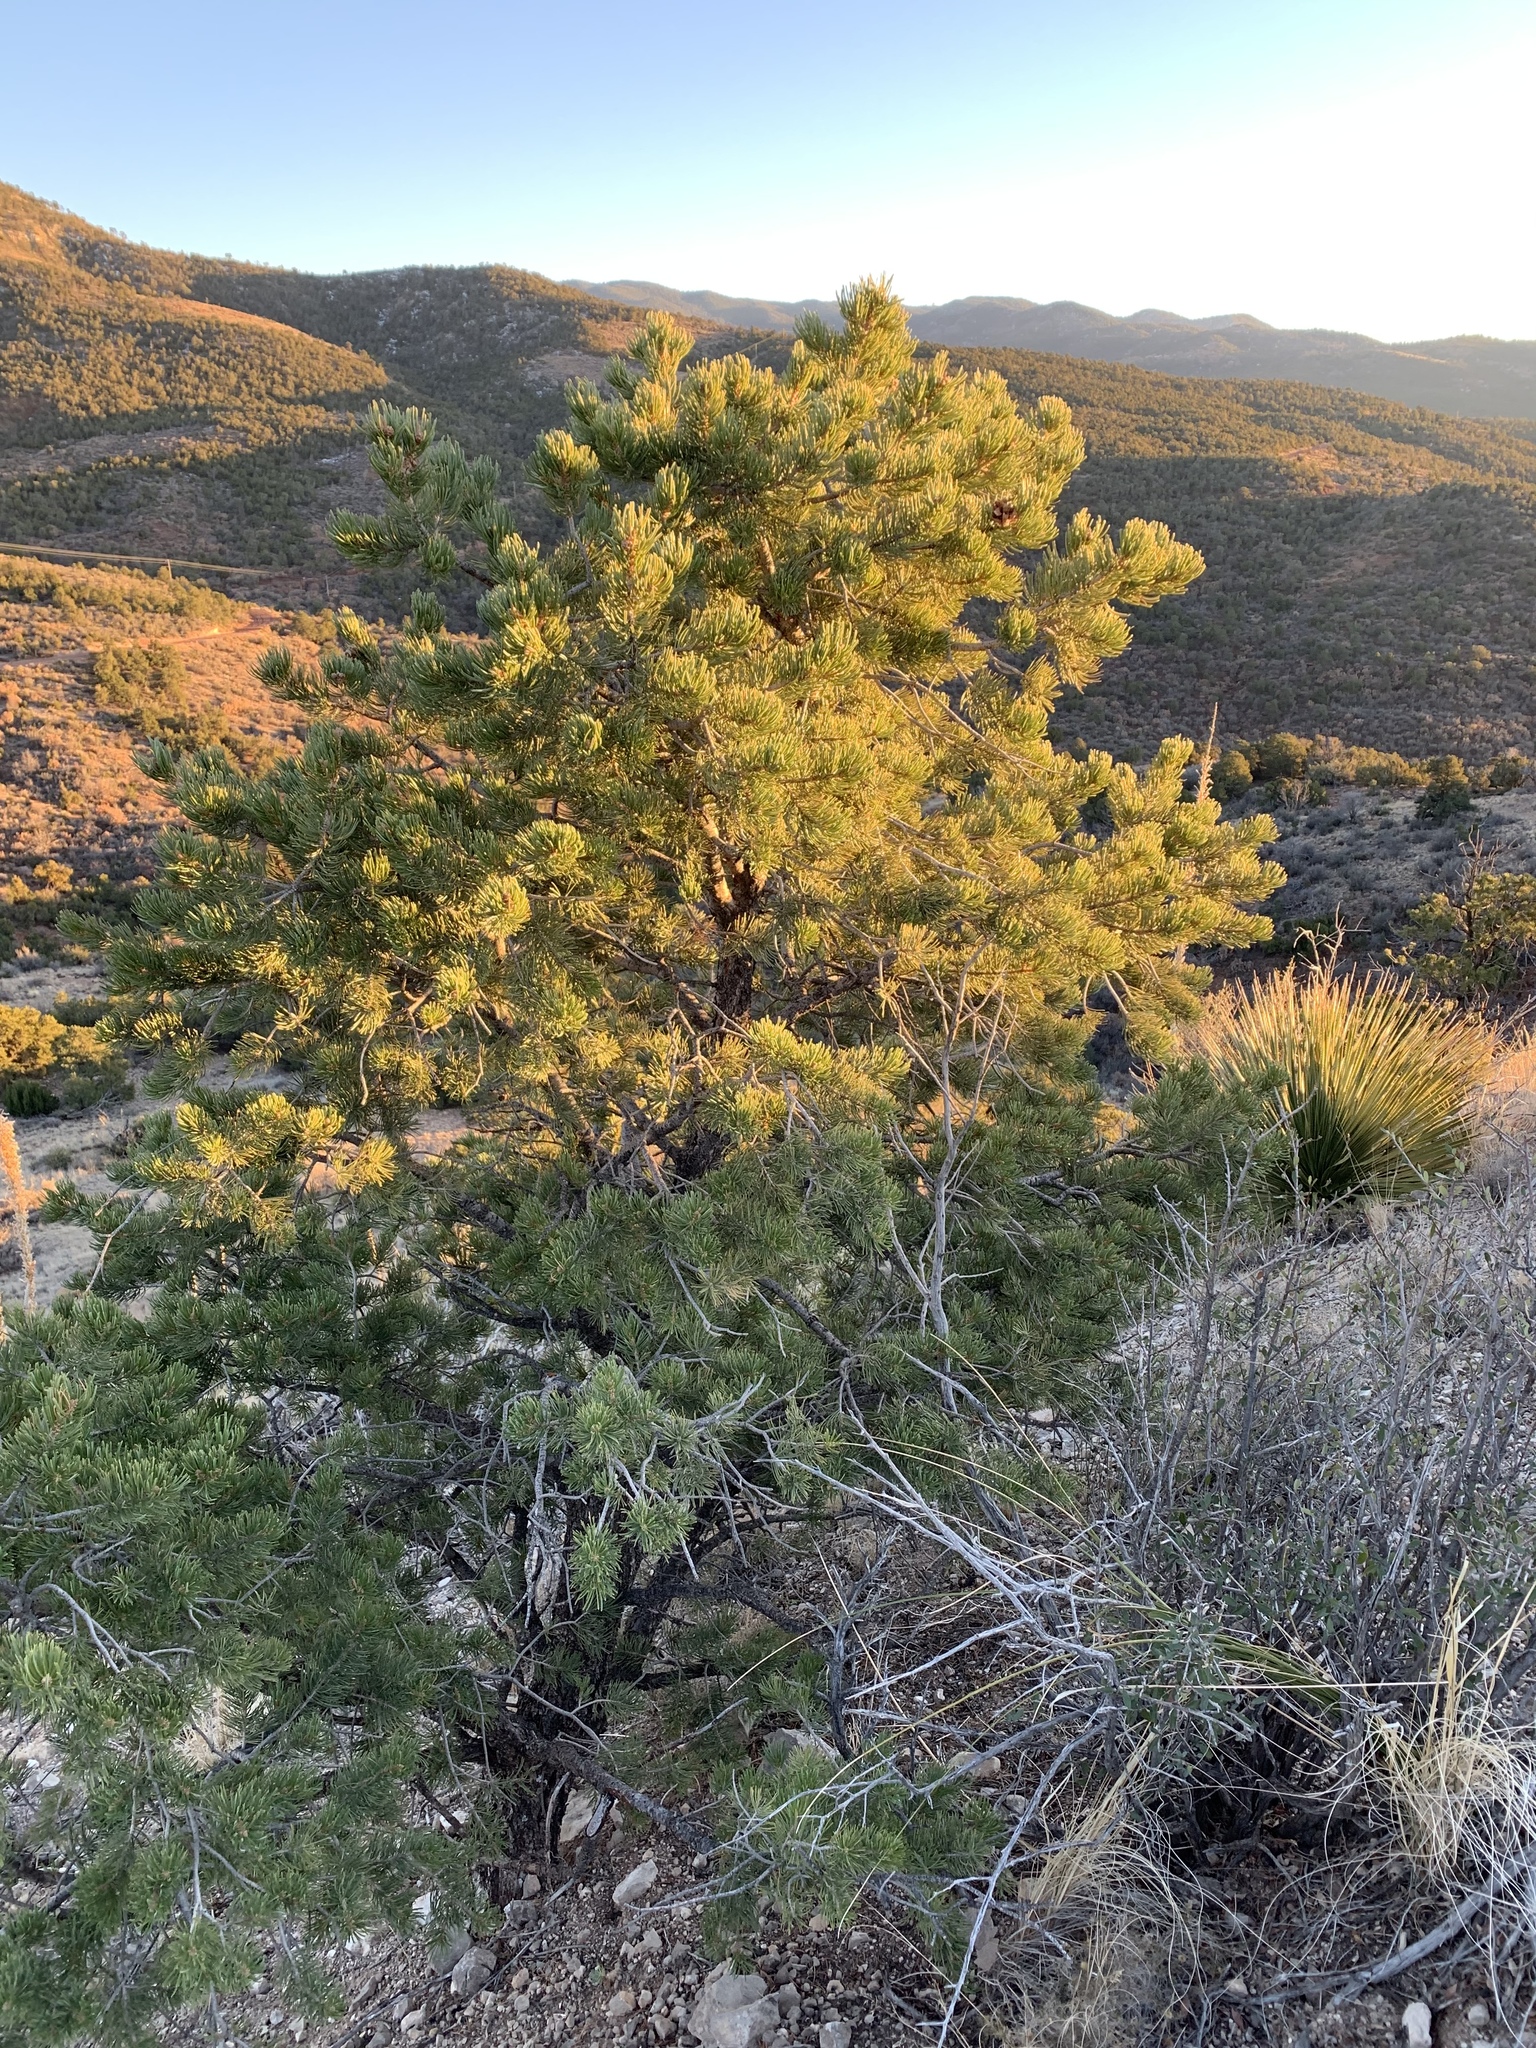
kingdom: Plantae
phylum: Tracheophyta
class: Pinopsida
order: Pinales
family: Pinaceae
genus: Pinus
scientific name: Pinus edulis
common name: Colorado pinyon
